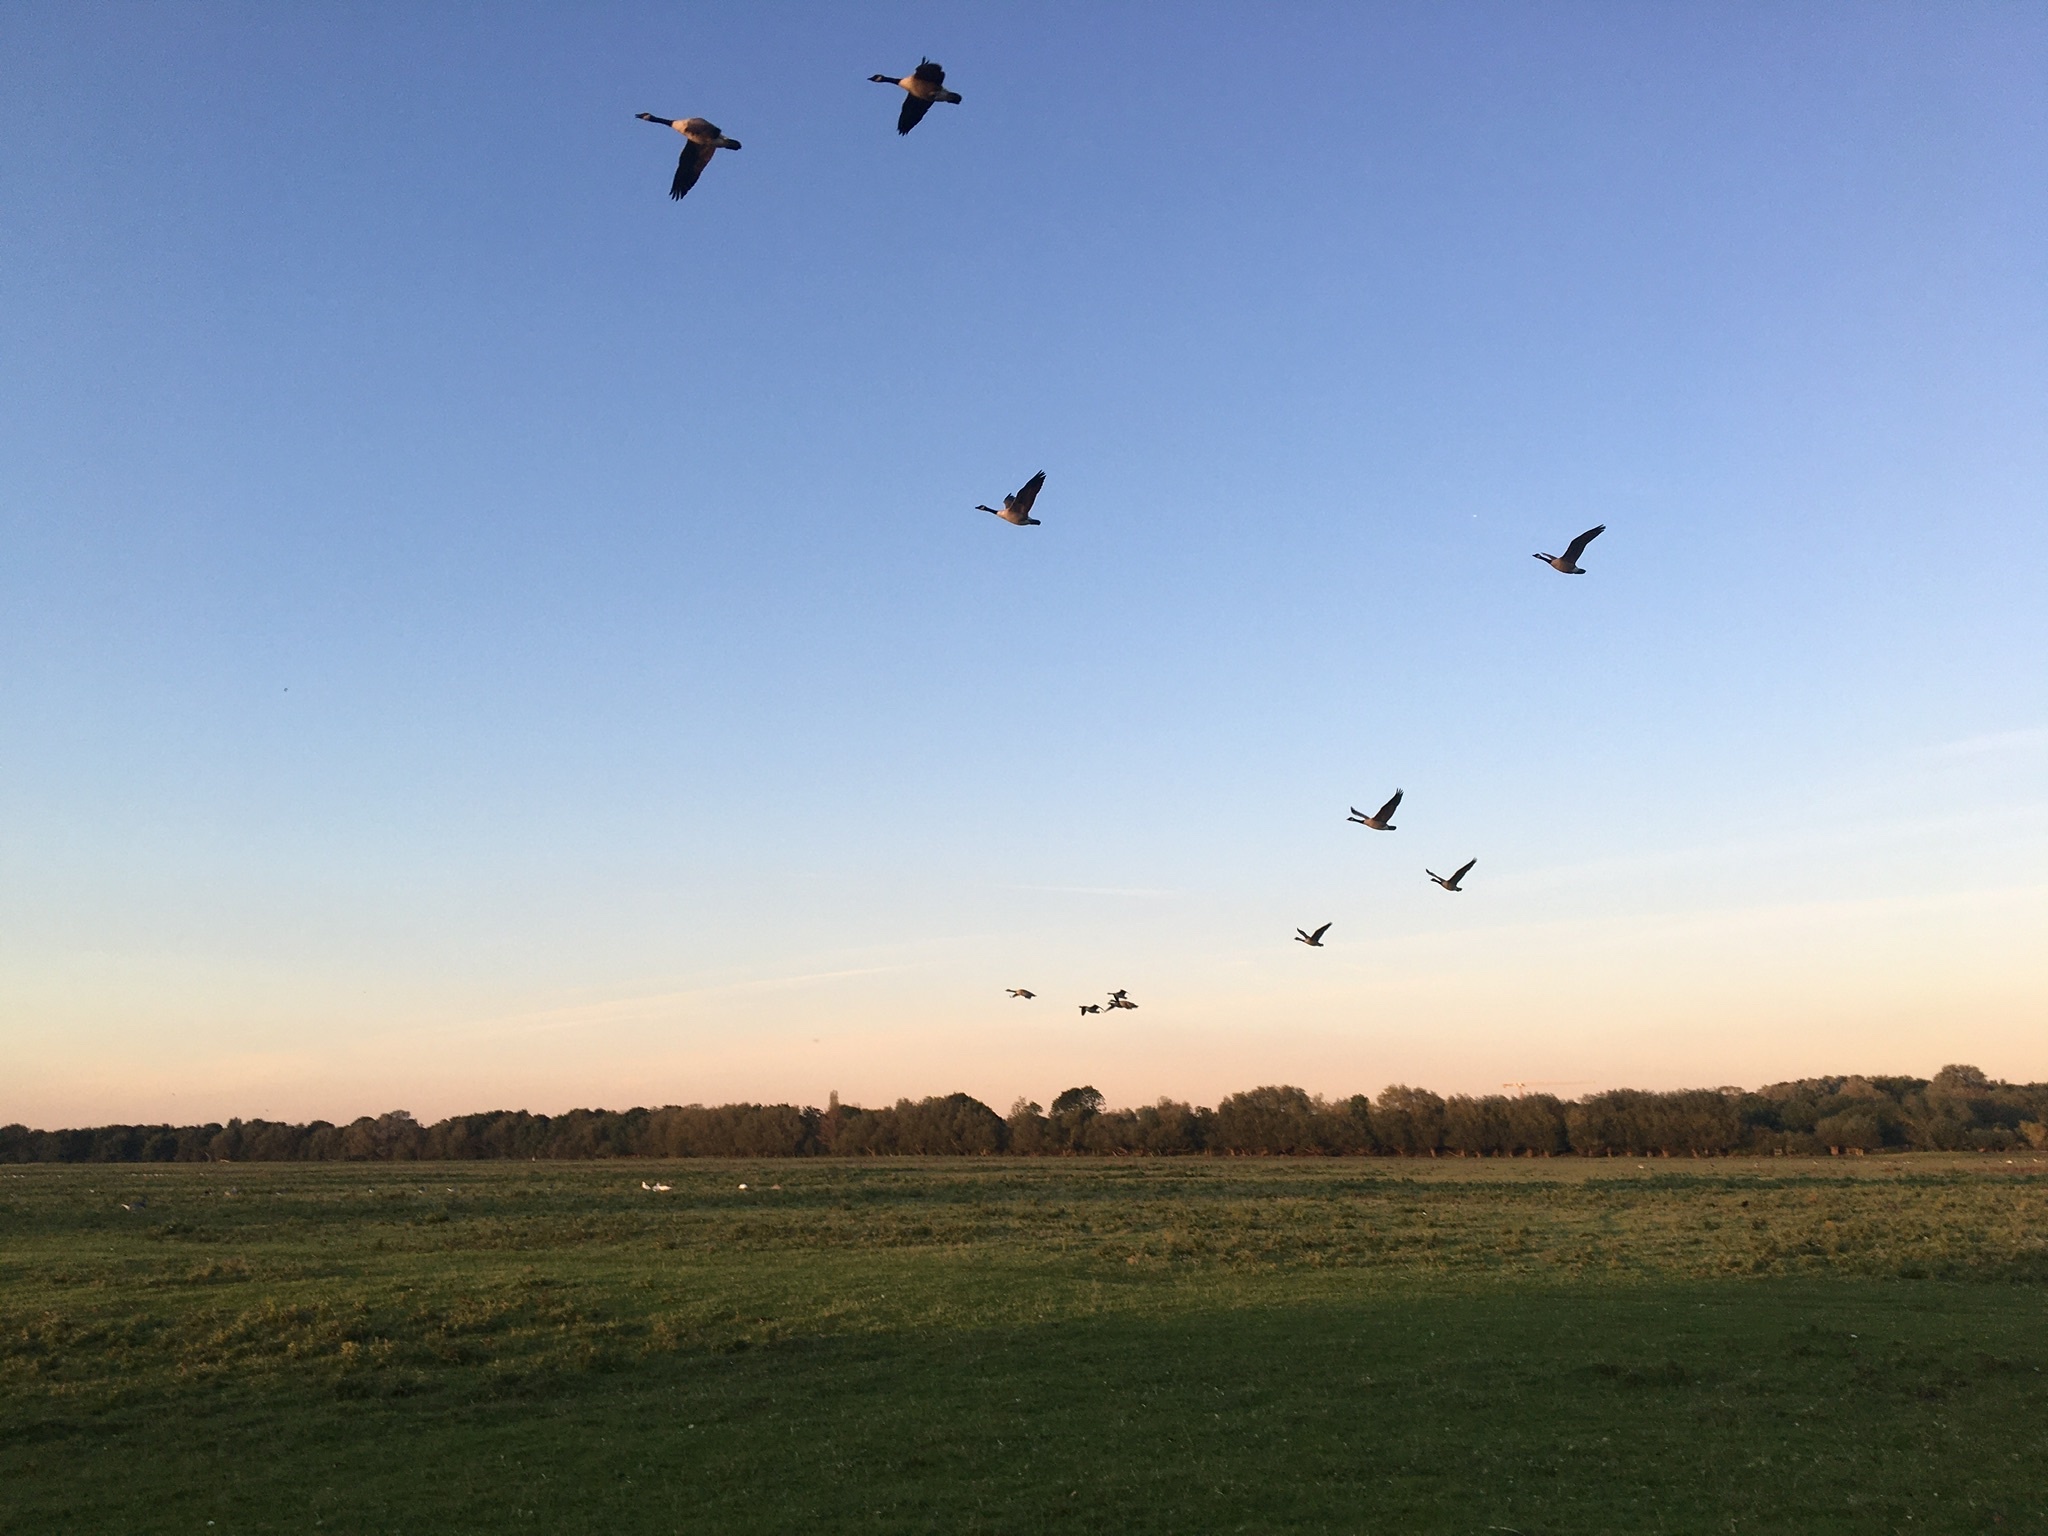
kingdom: Animalia
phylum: Chordata
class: Aves
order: Anseriformes
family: Anatidae
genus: Branta
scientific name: Branta canadensis
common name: Canada goose
